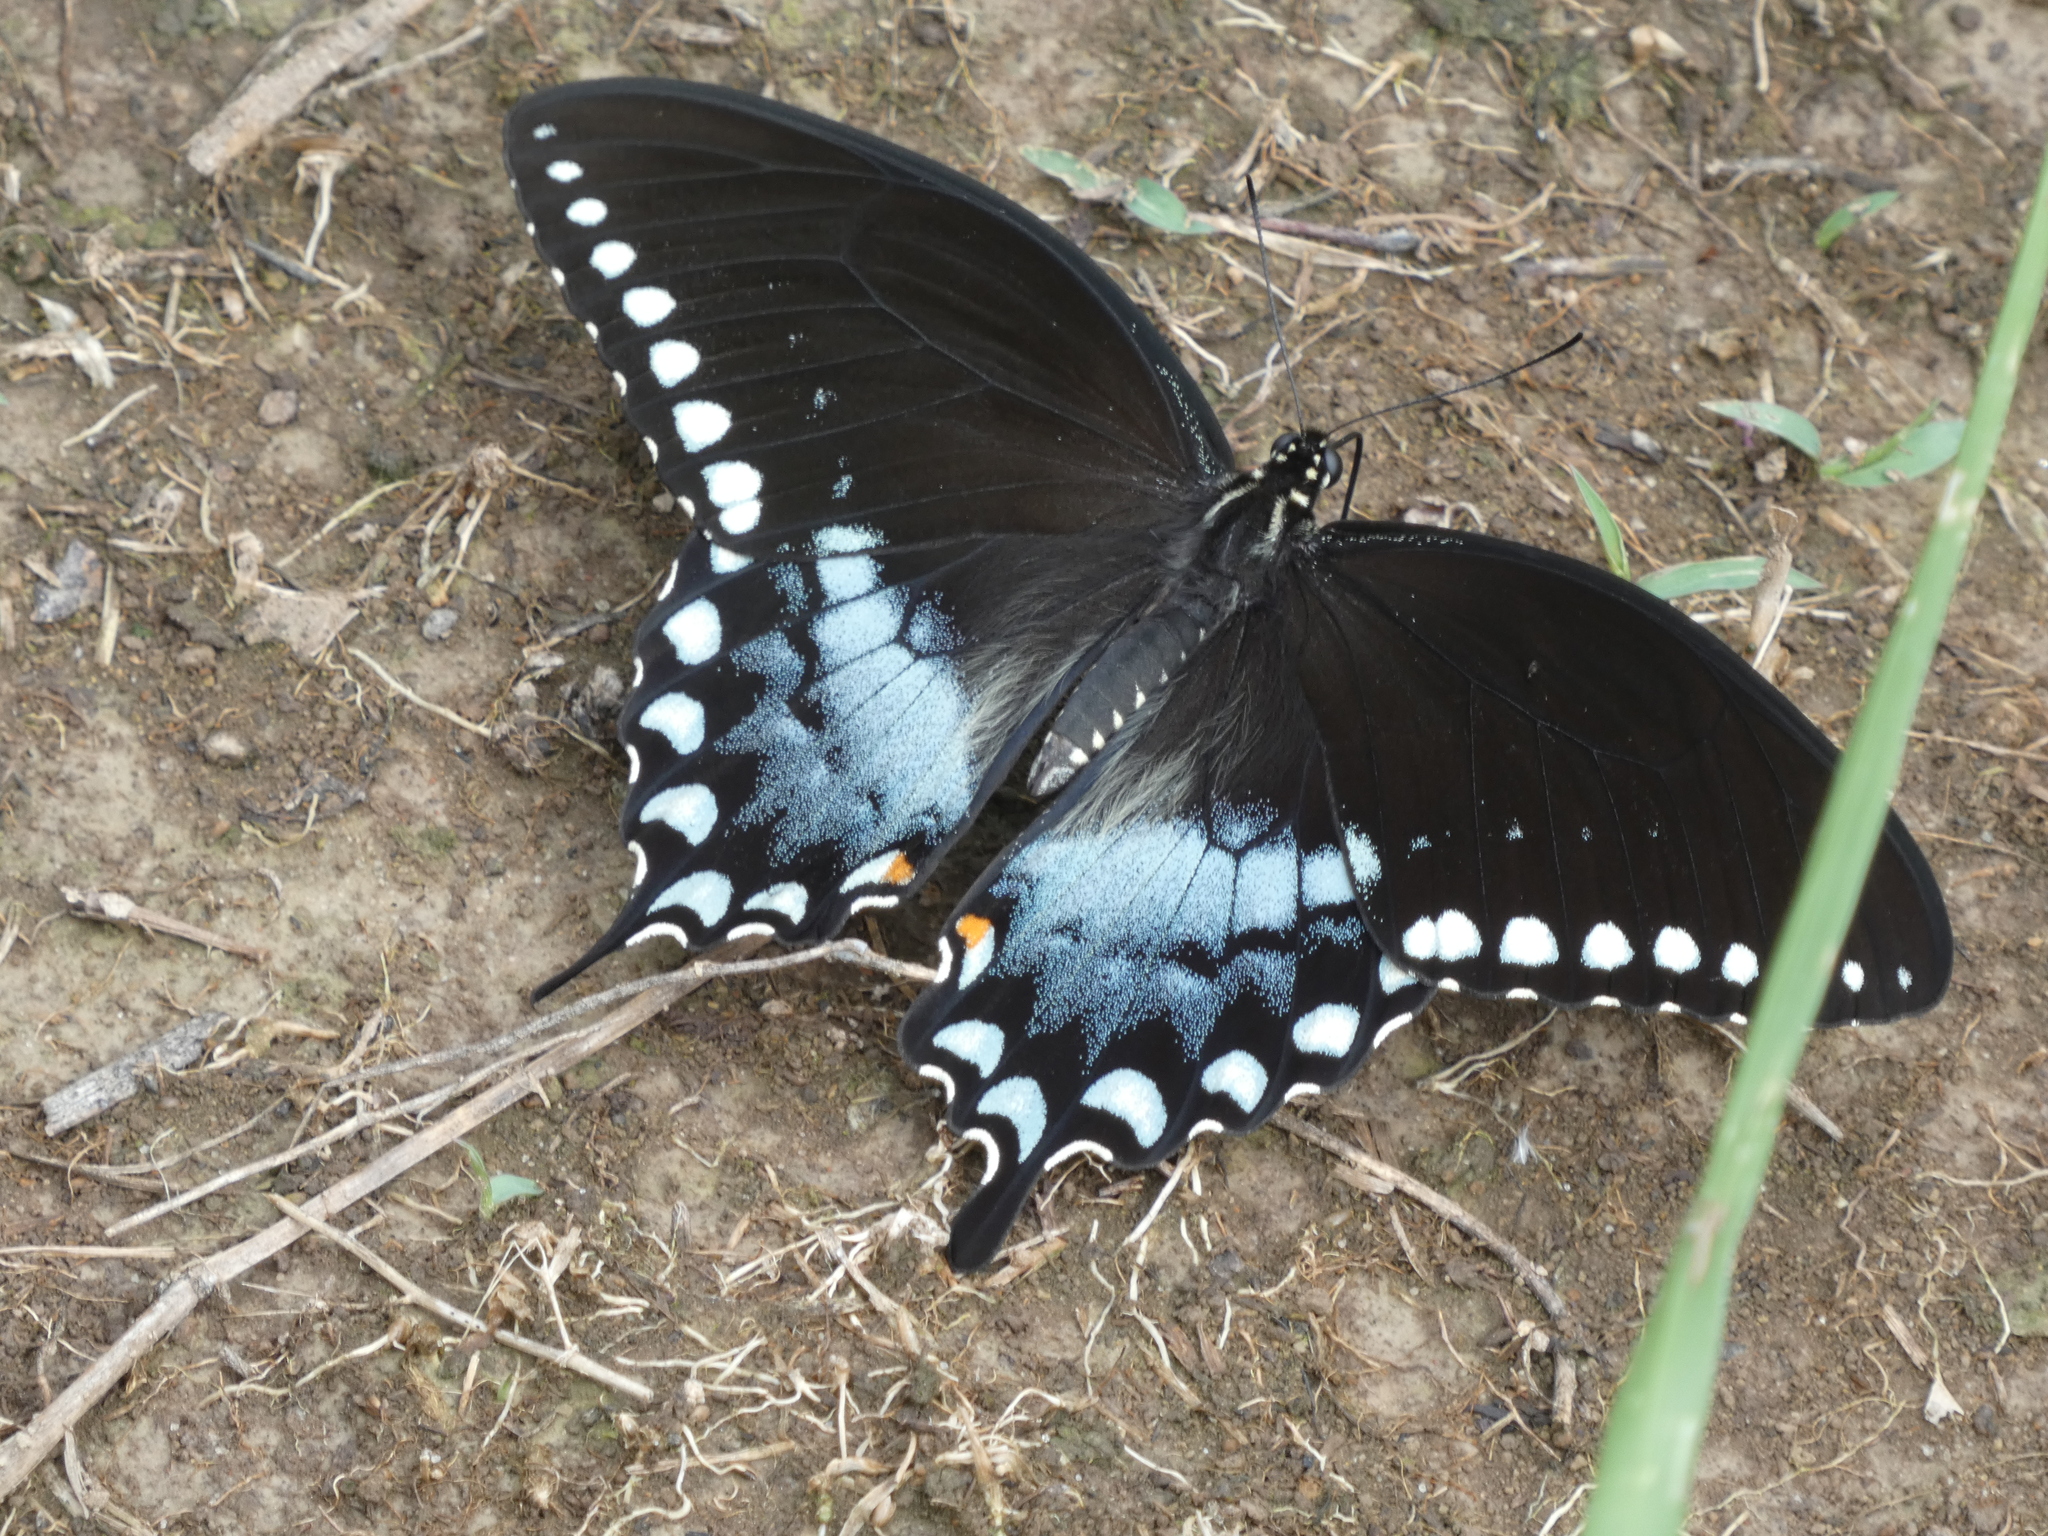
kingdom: Animalia
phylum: Arthropoda
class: Insecta
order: Lepidoptera
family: Papilionidae
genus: Papilio
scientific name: Papilio troilus
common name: Spicebush swallowtail
